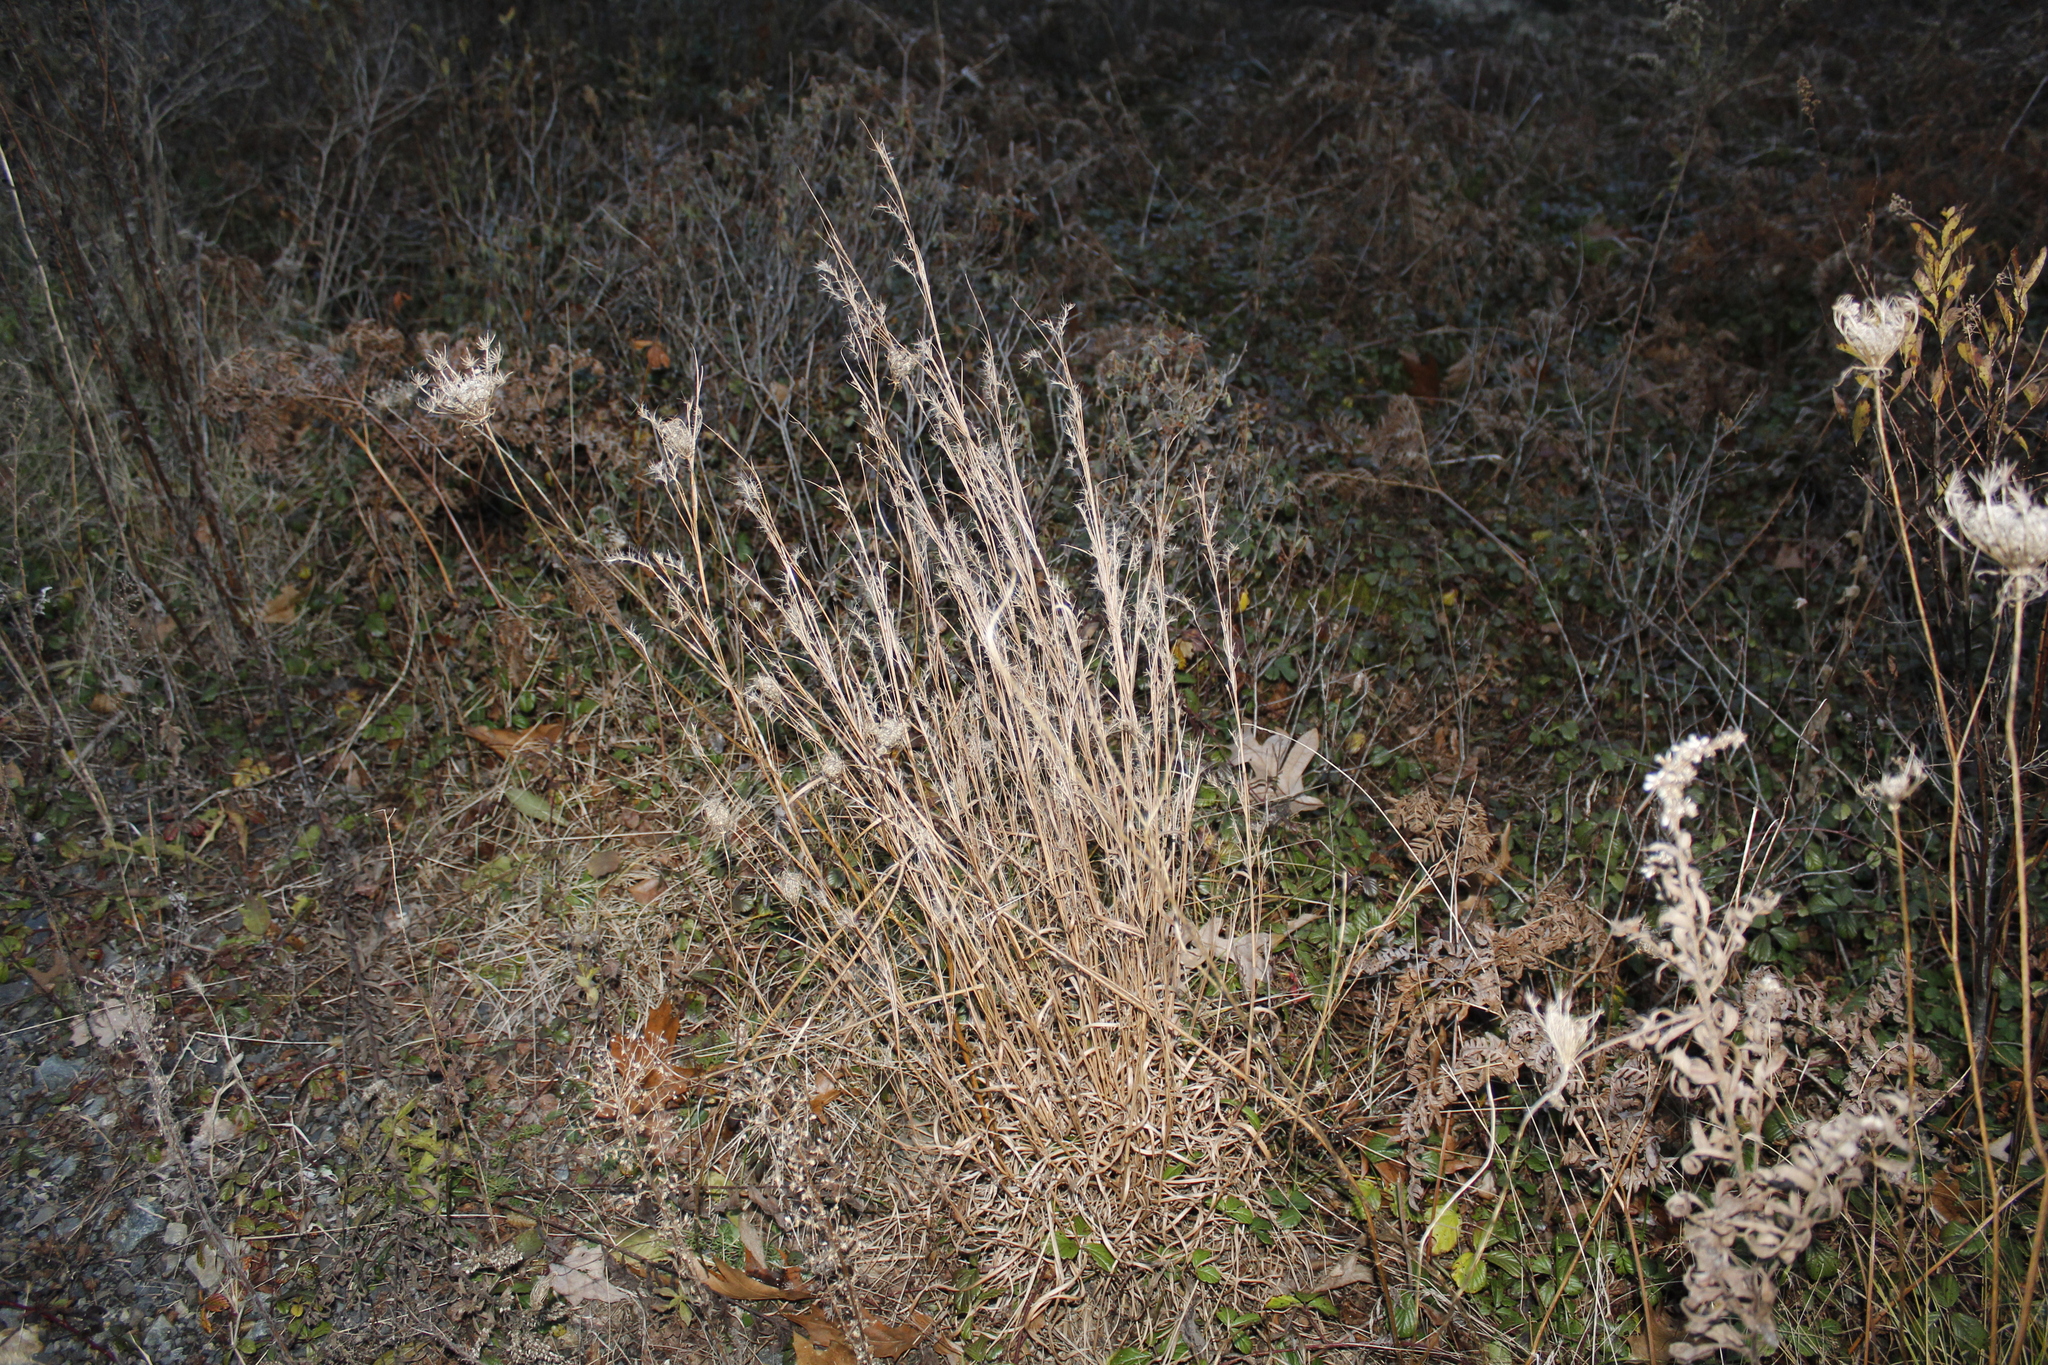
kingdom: Plantae
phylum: Tracheophyta
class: Liliopsida
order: Poales
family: Poaceae
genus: Schizachyrium
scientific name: Schizachyrium scoparium
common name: Little bluestem
